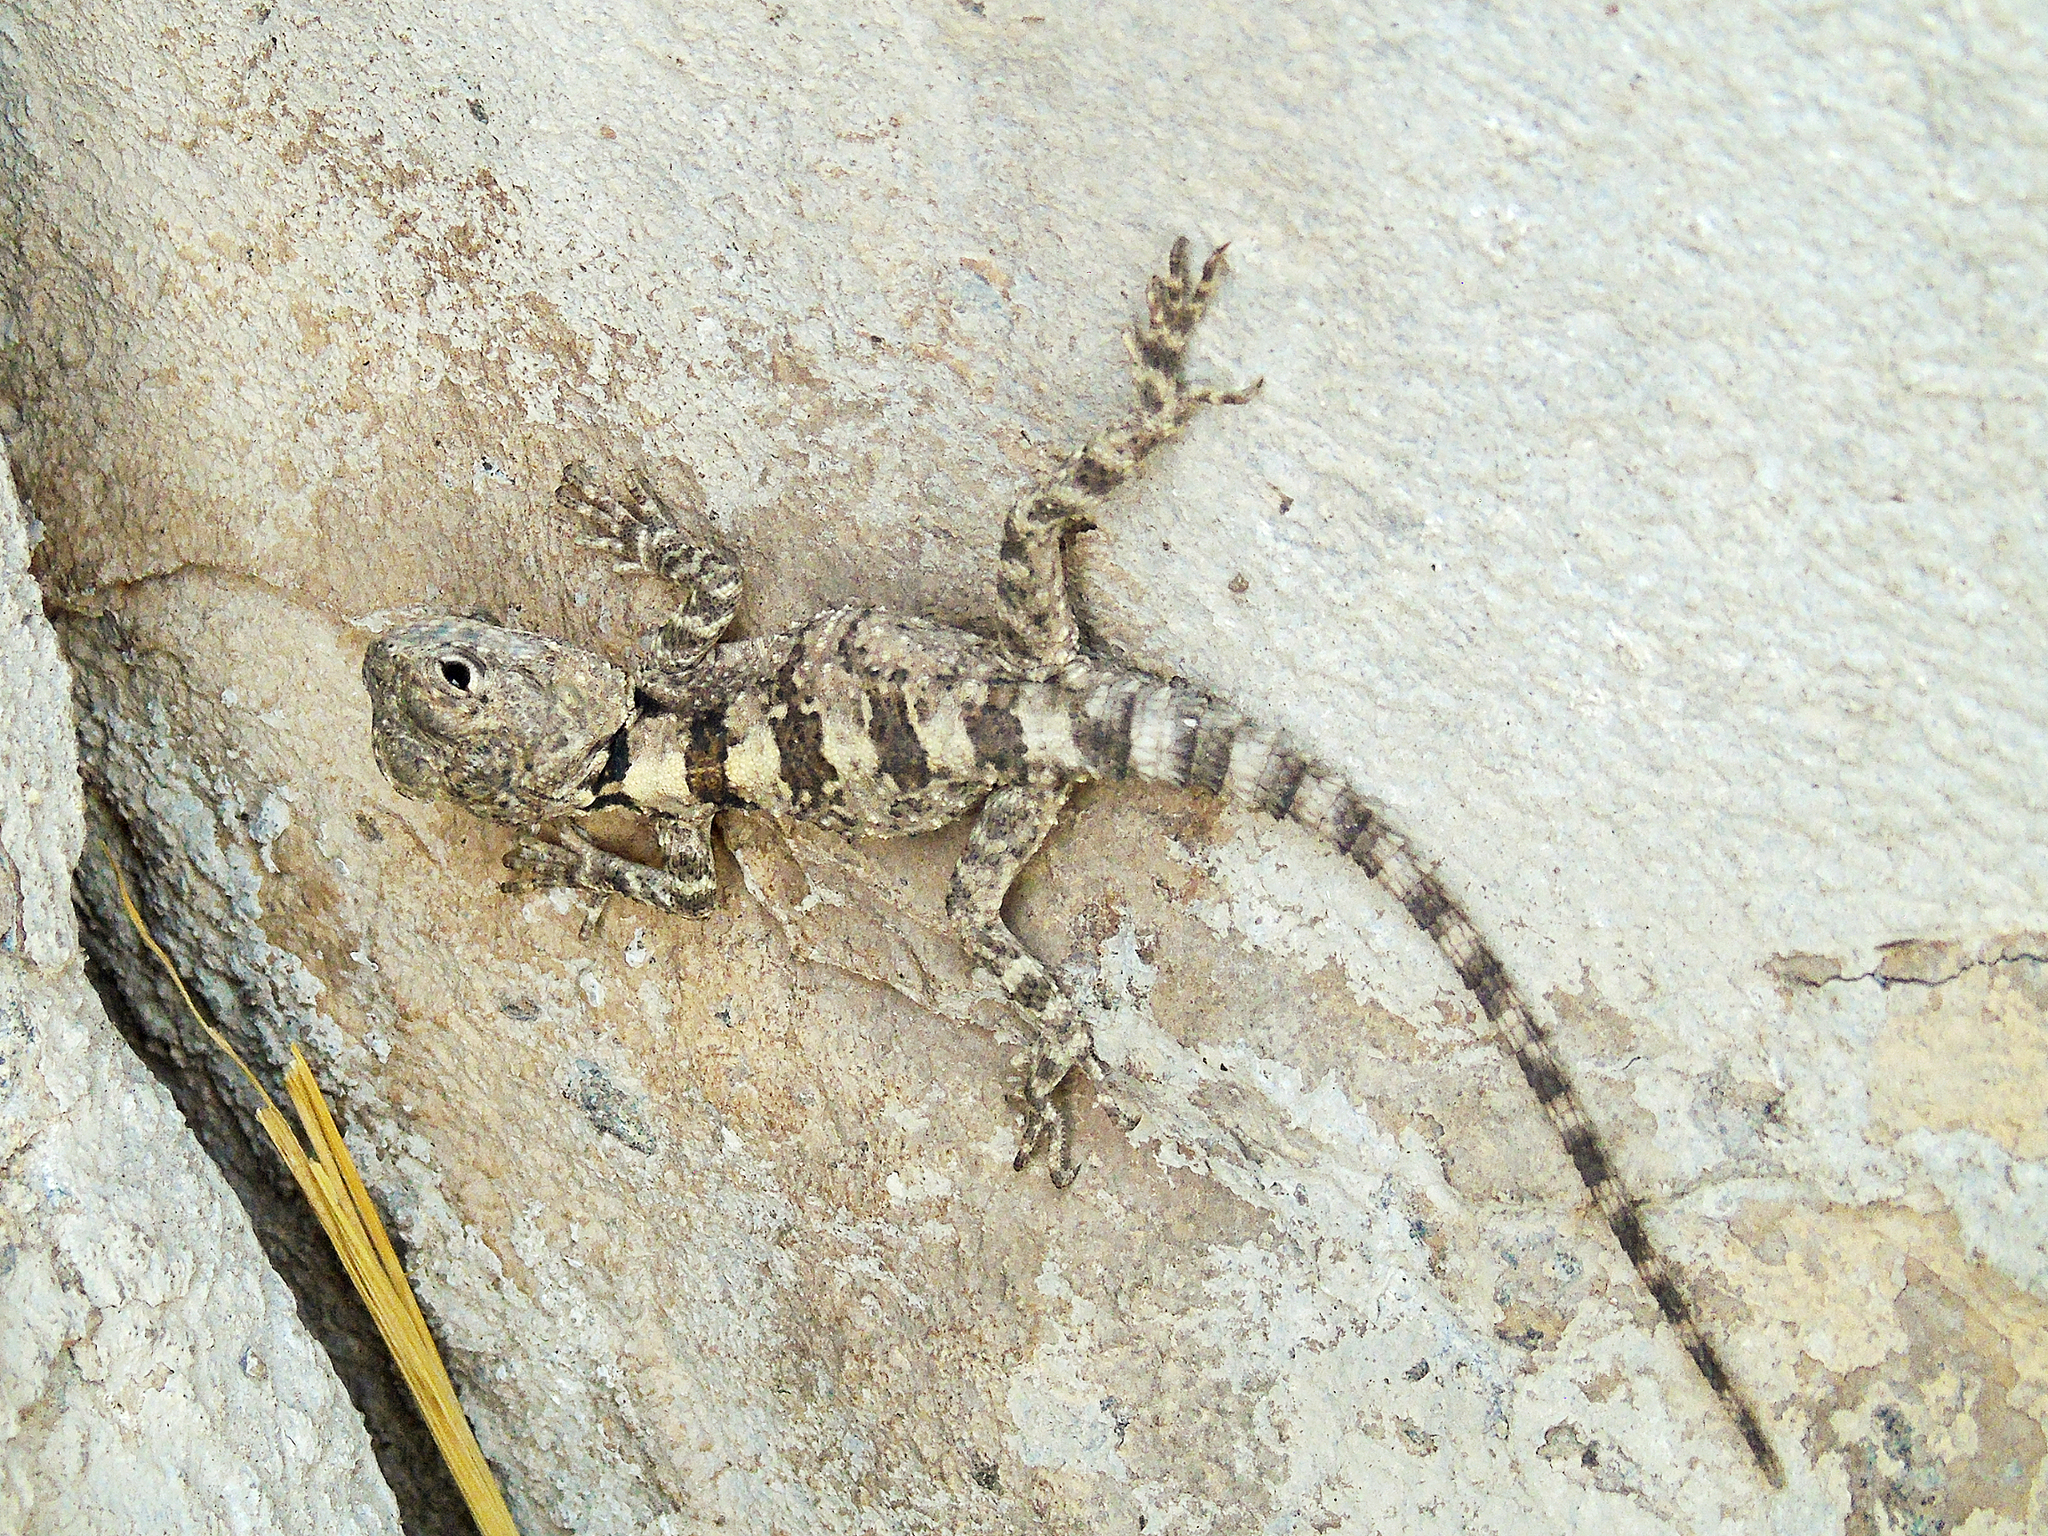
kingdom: Animalia
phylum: Chordata
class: Squamata
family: Agamidae
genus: Stellagama
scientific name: Stellagama stellio
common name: Starred agama
